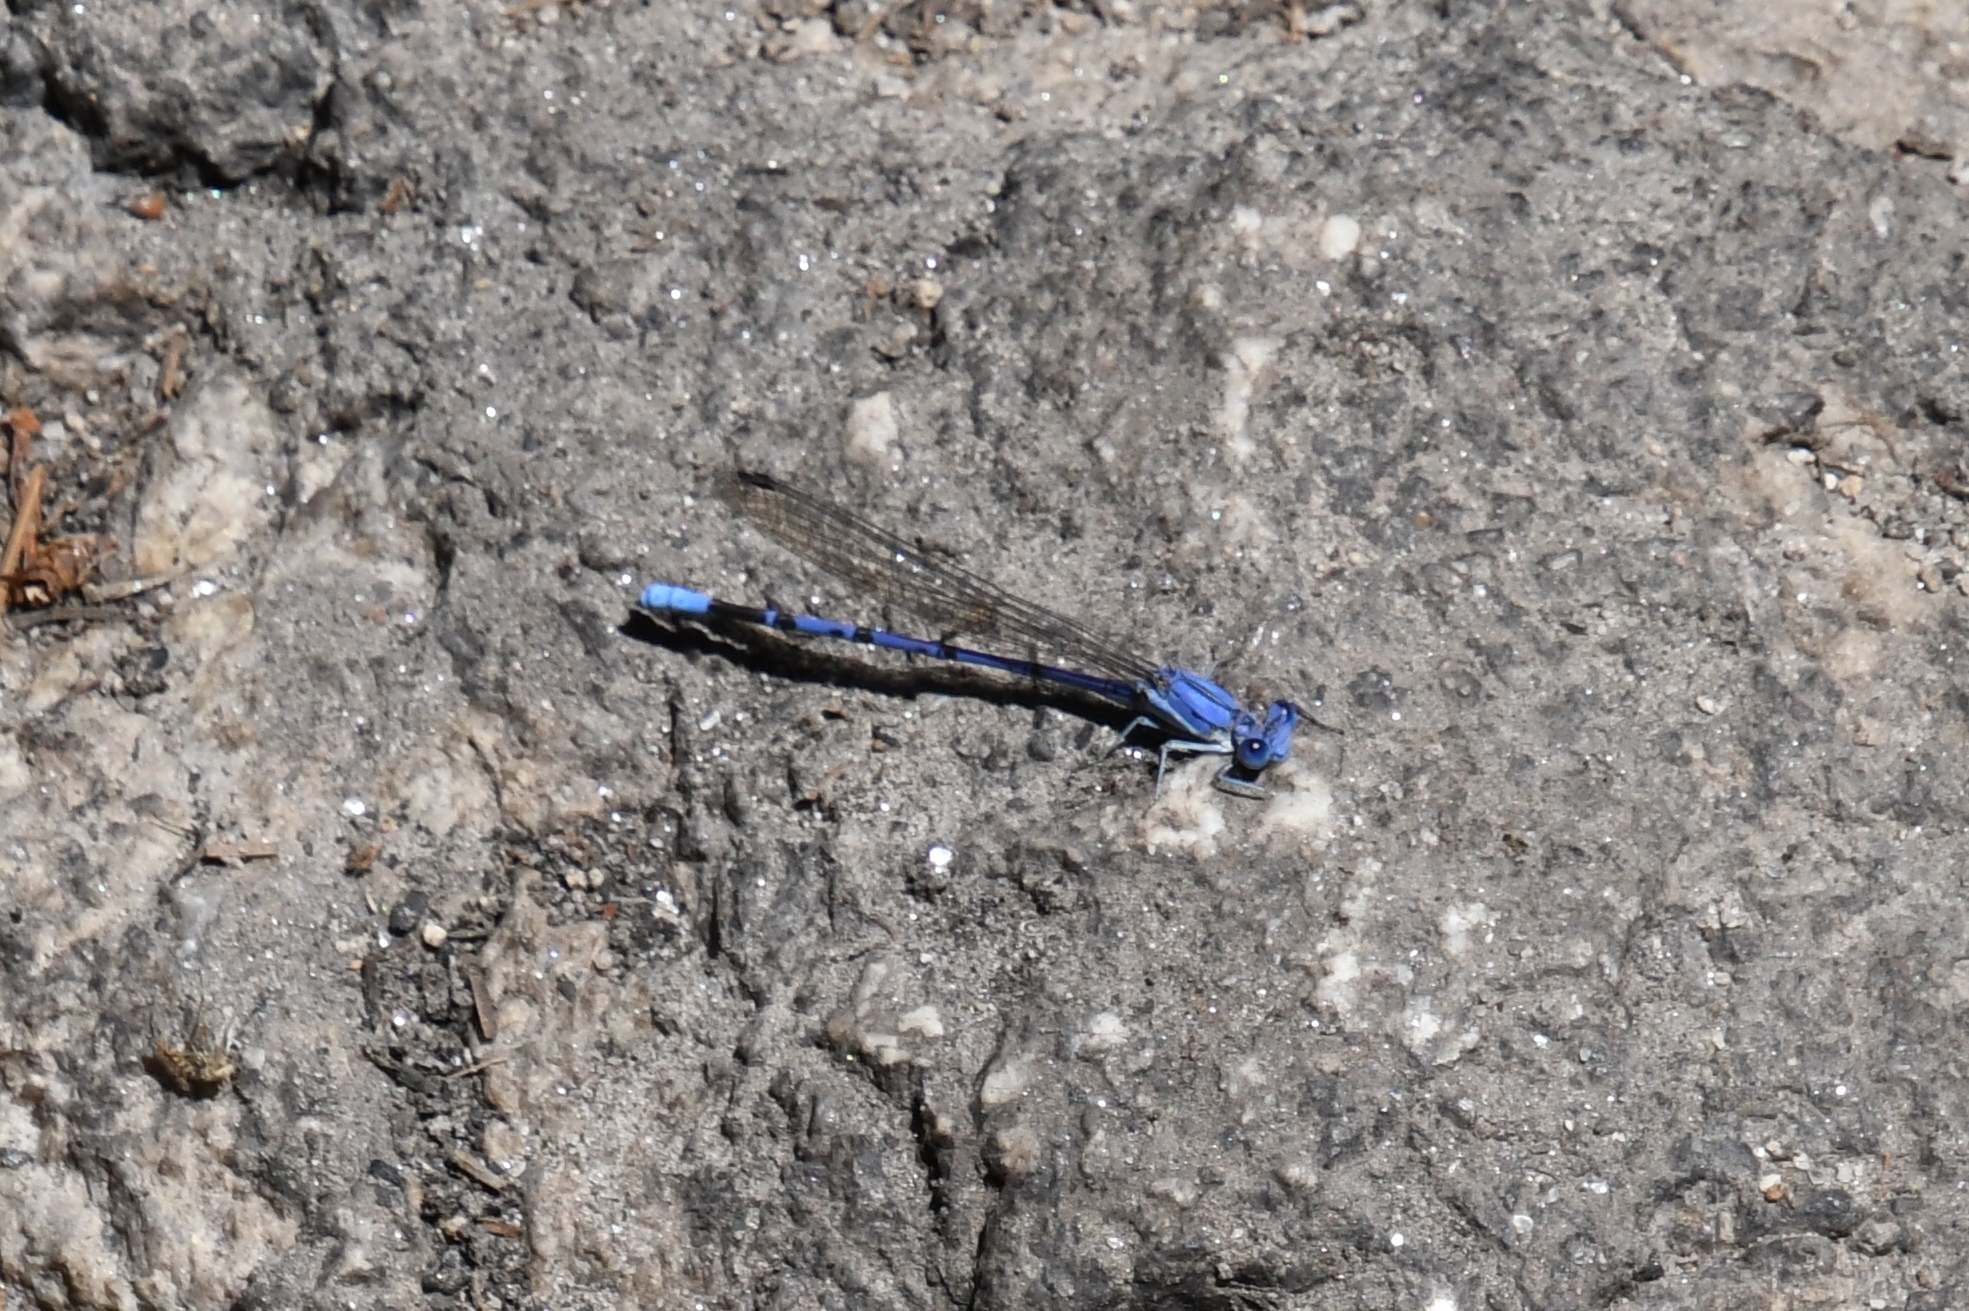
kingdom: Animalia
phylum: Arthropoda
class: Insecta
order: Odonata
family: Coenagrionidae
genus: Argia
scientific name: Argia munda
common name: Apache dancer
